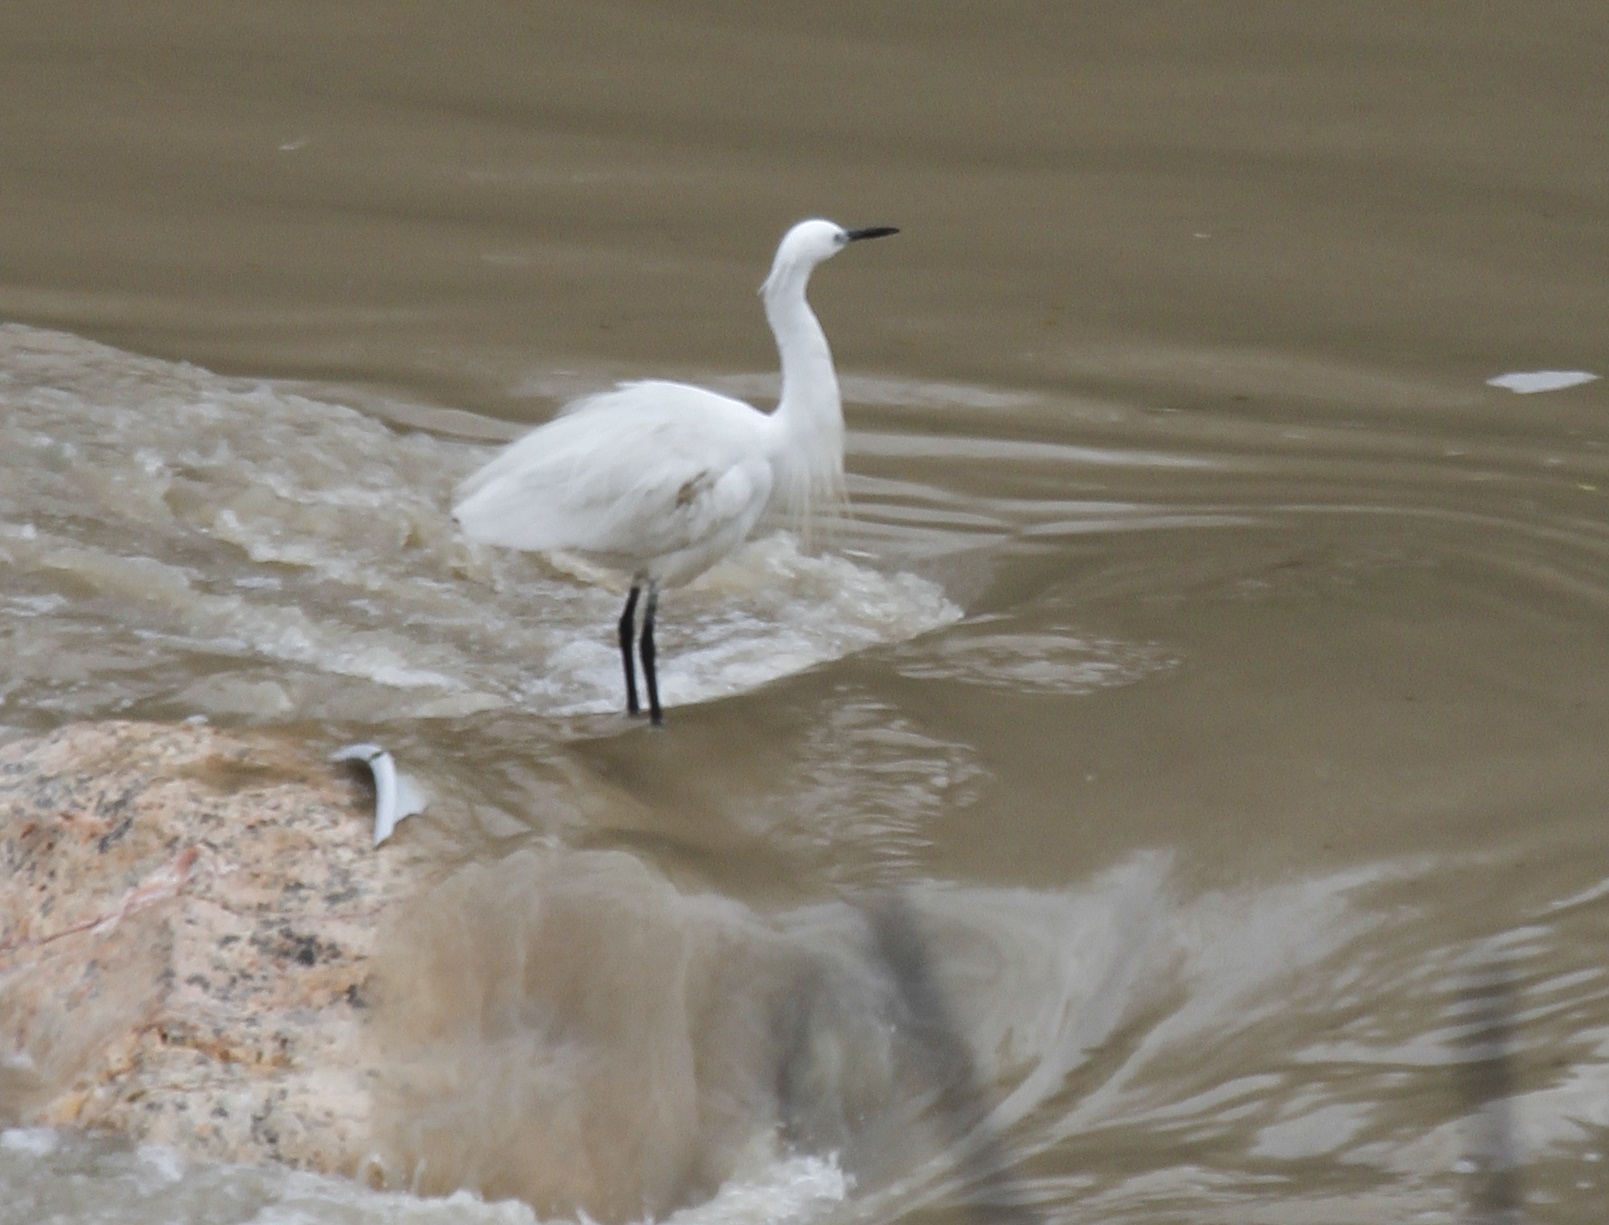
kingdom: Animalia
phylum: Chordata
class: Aves
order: Pelecaniformes
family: Ardeidae
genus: Egretta
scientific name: Egretta garzetta
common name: Little egret
